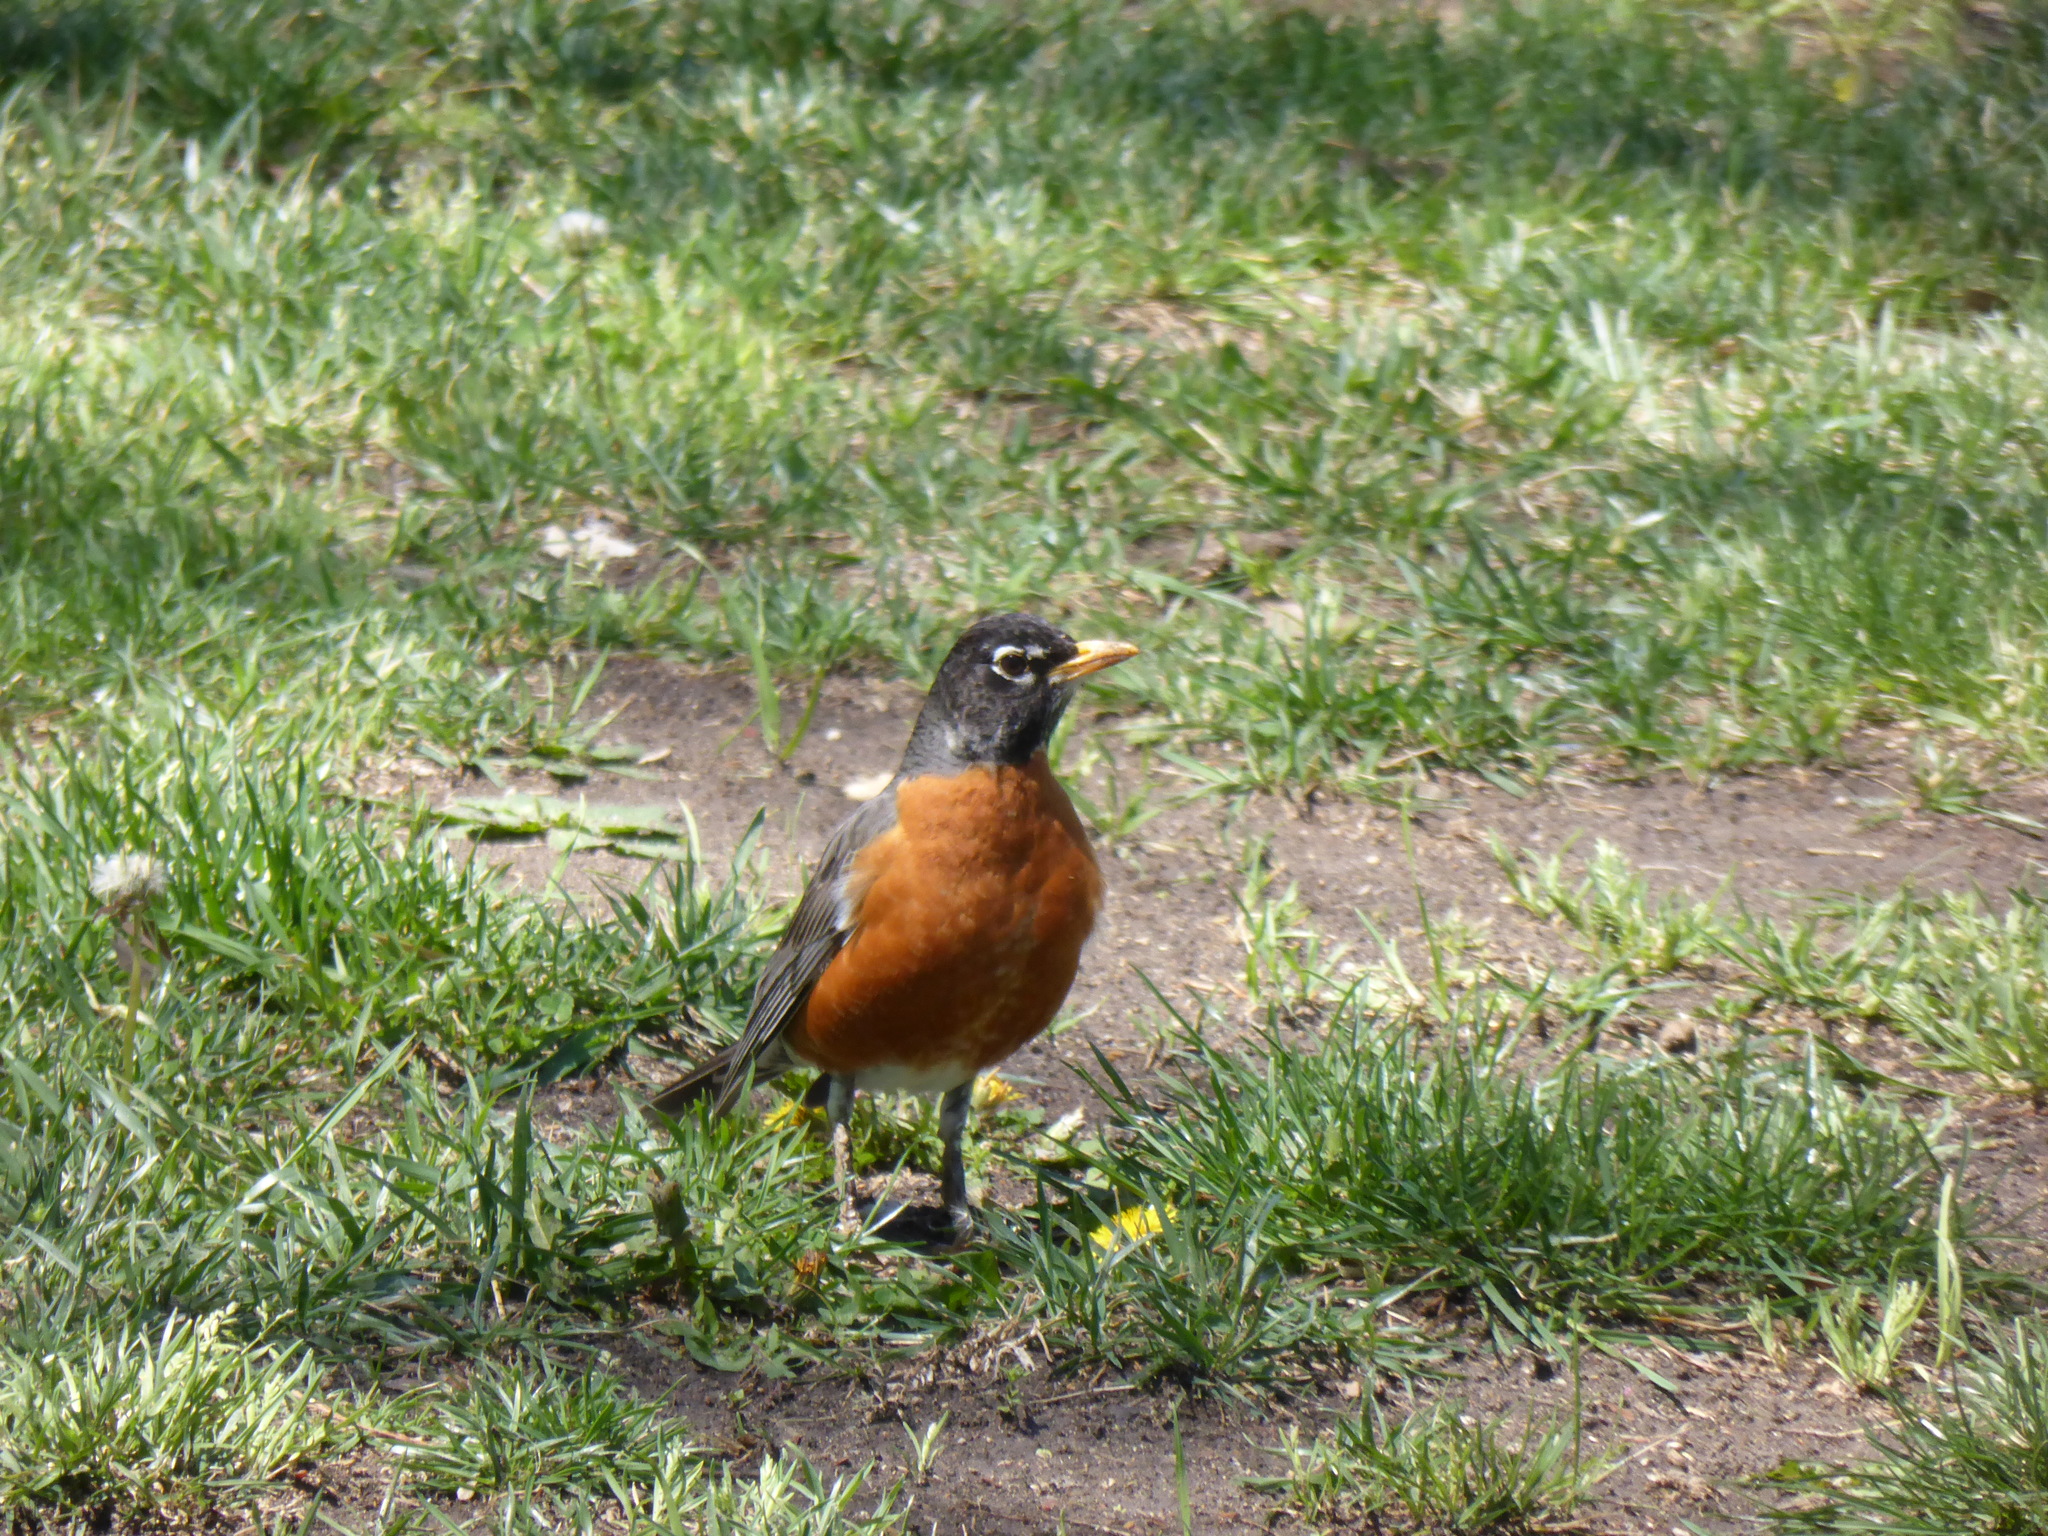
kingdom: Animalia
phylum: Chordata
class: Aves
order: Passeriformes
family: Turdidae
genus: Turdus
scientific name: Turdus migratorius
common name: American robin
